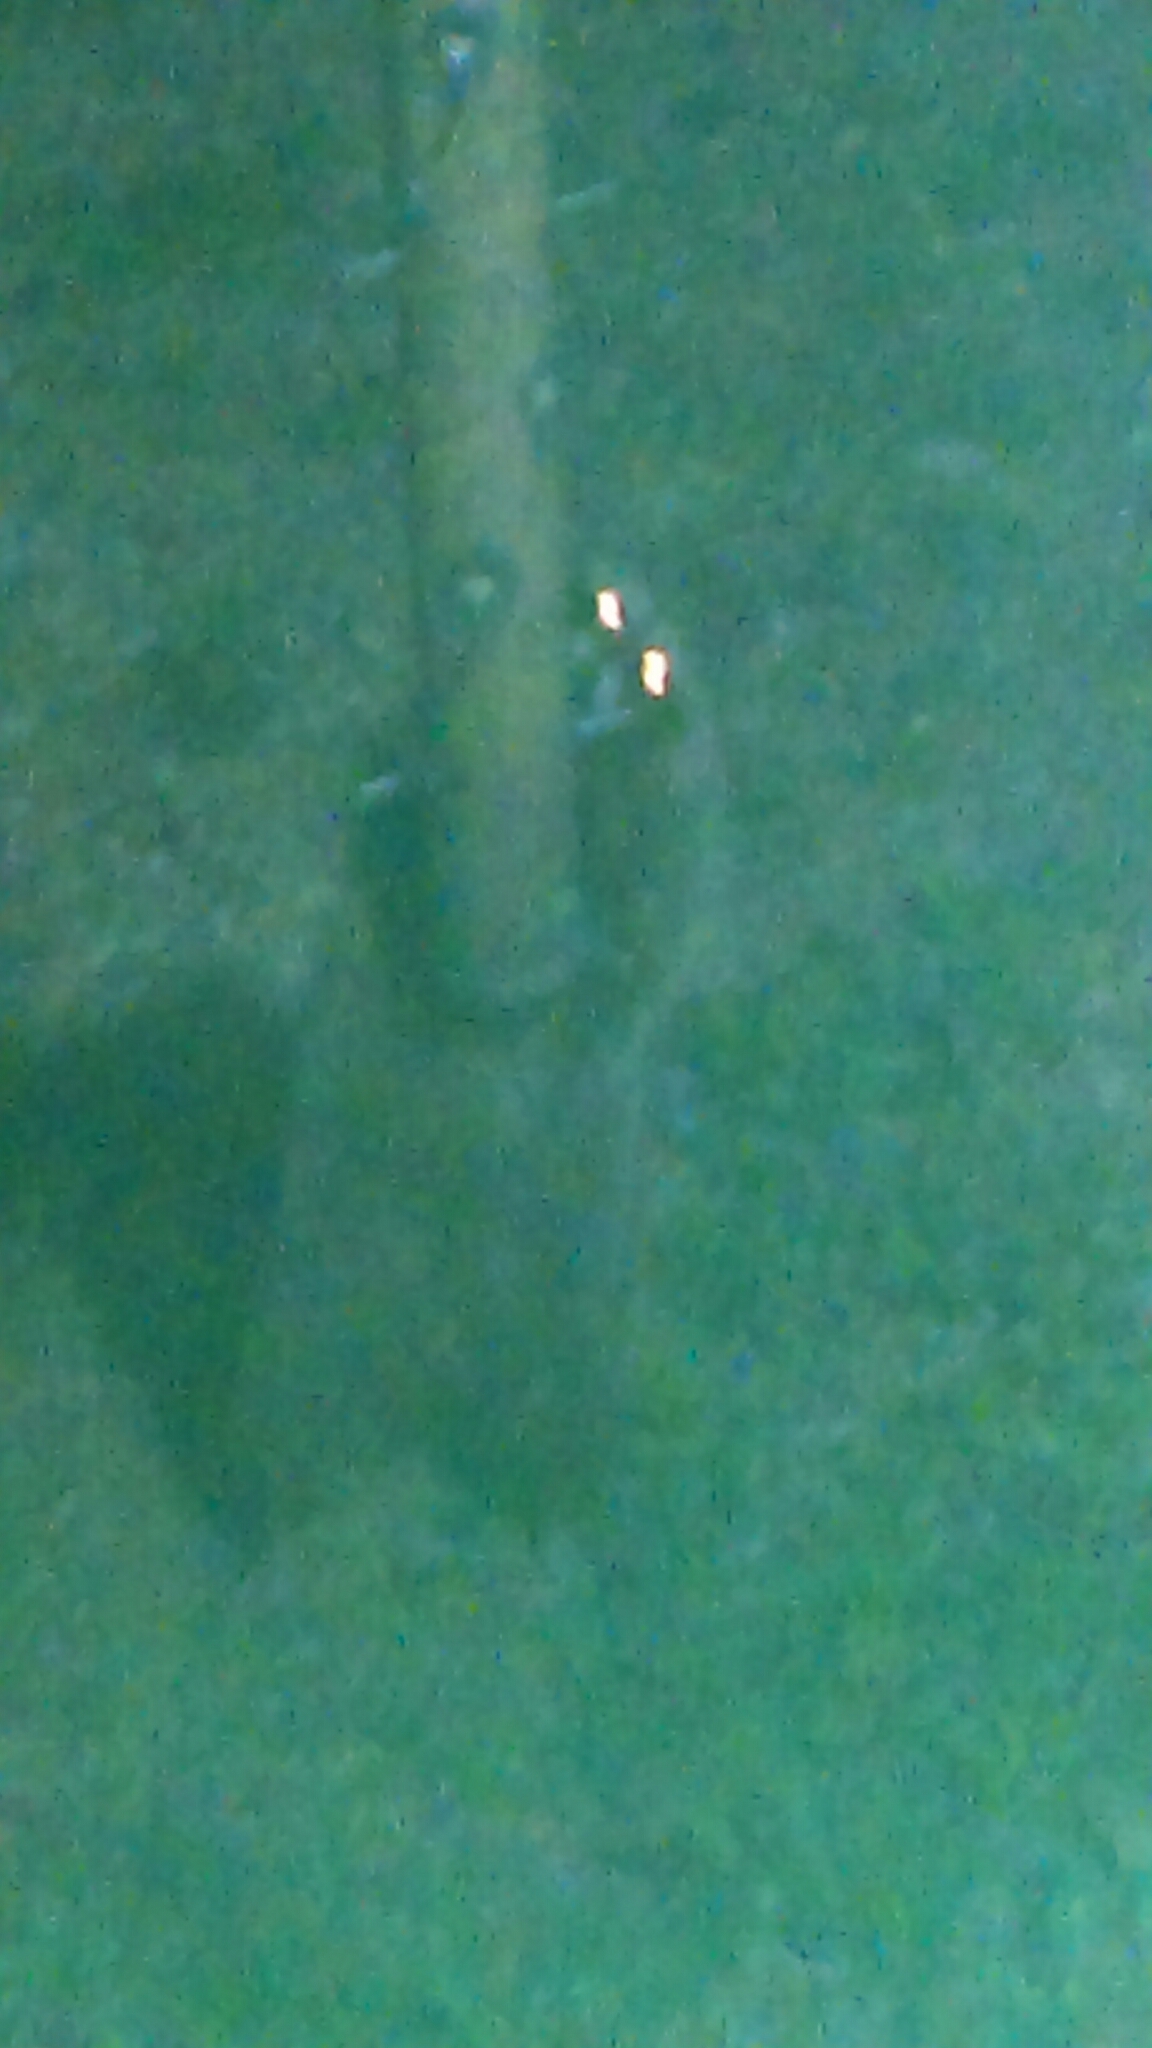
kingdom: Animalia
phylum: Chordata
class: Mammalia
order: Carnivora
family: Procyonidae
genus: Procyon
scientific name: Procyon lotor
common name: Raccoon
